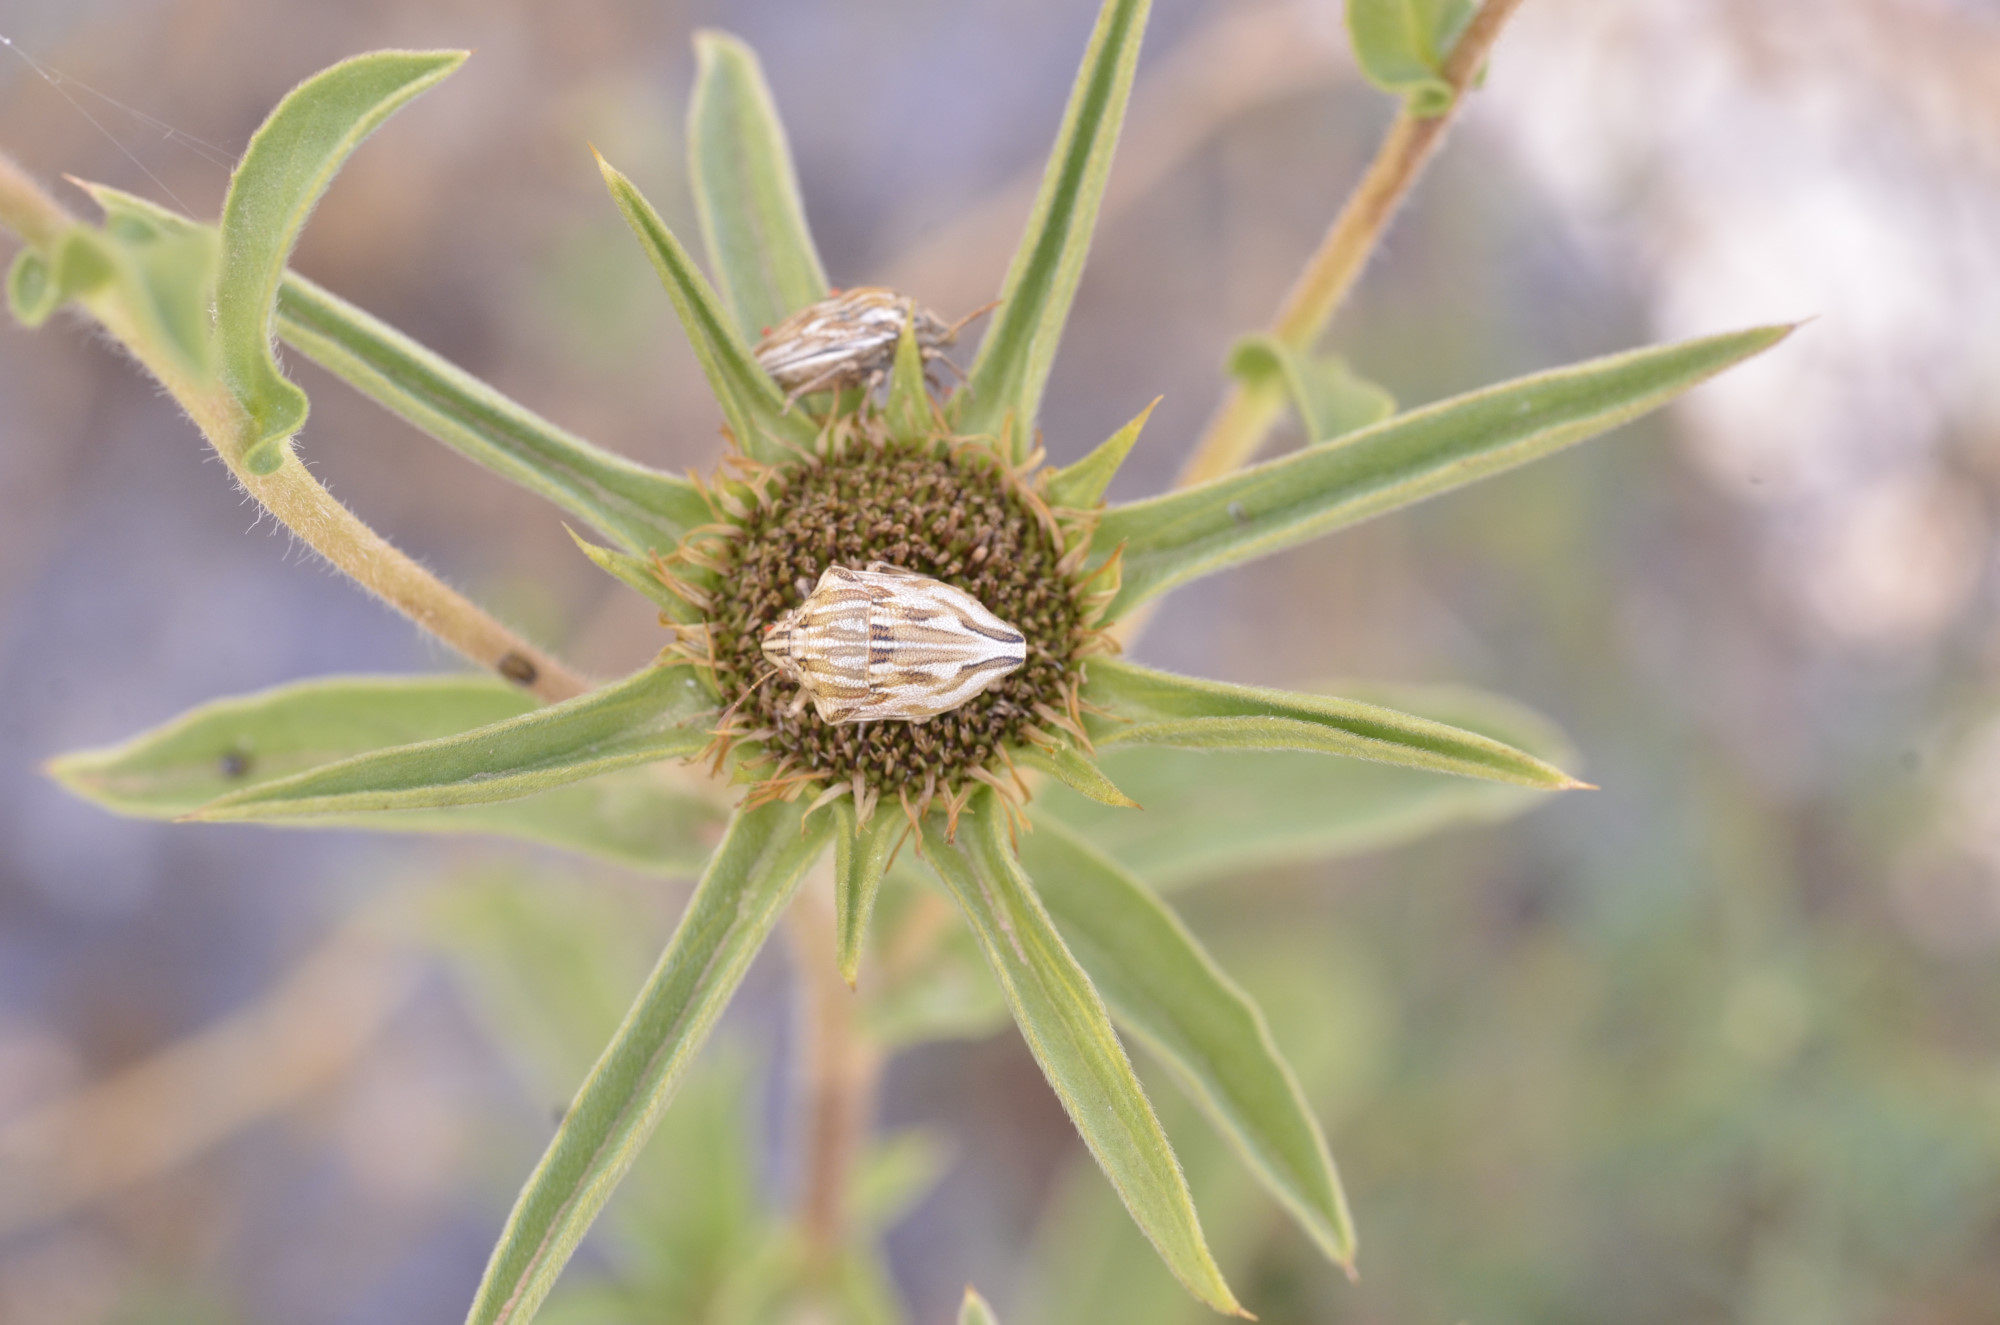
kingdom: Animalia
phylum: Arthropoda
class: Insecta
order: Hemiptera
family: Scutelleridae
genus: Odontotarsus
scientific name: Odontotarsus robustus
